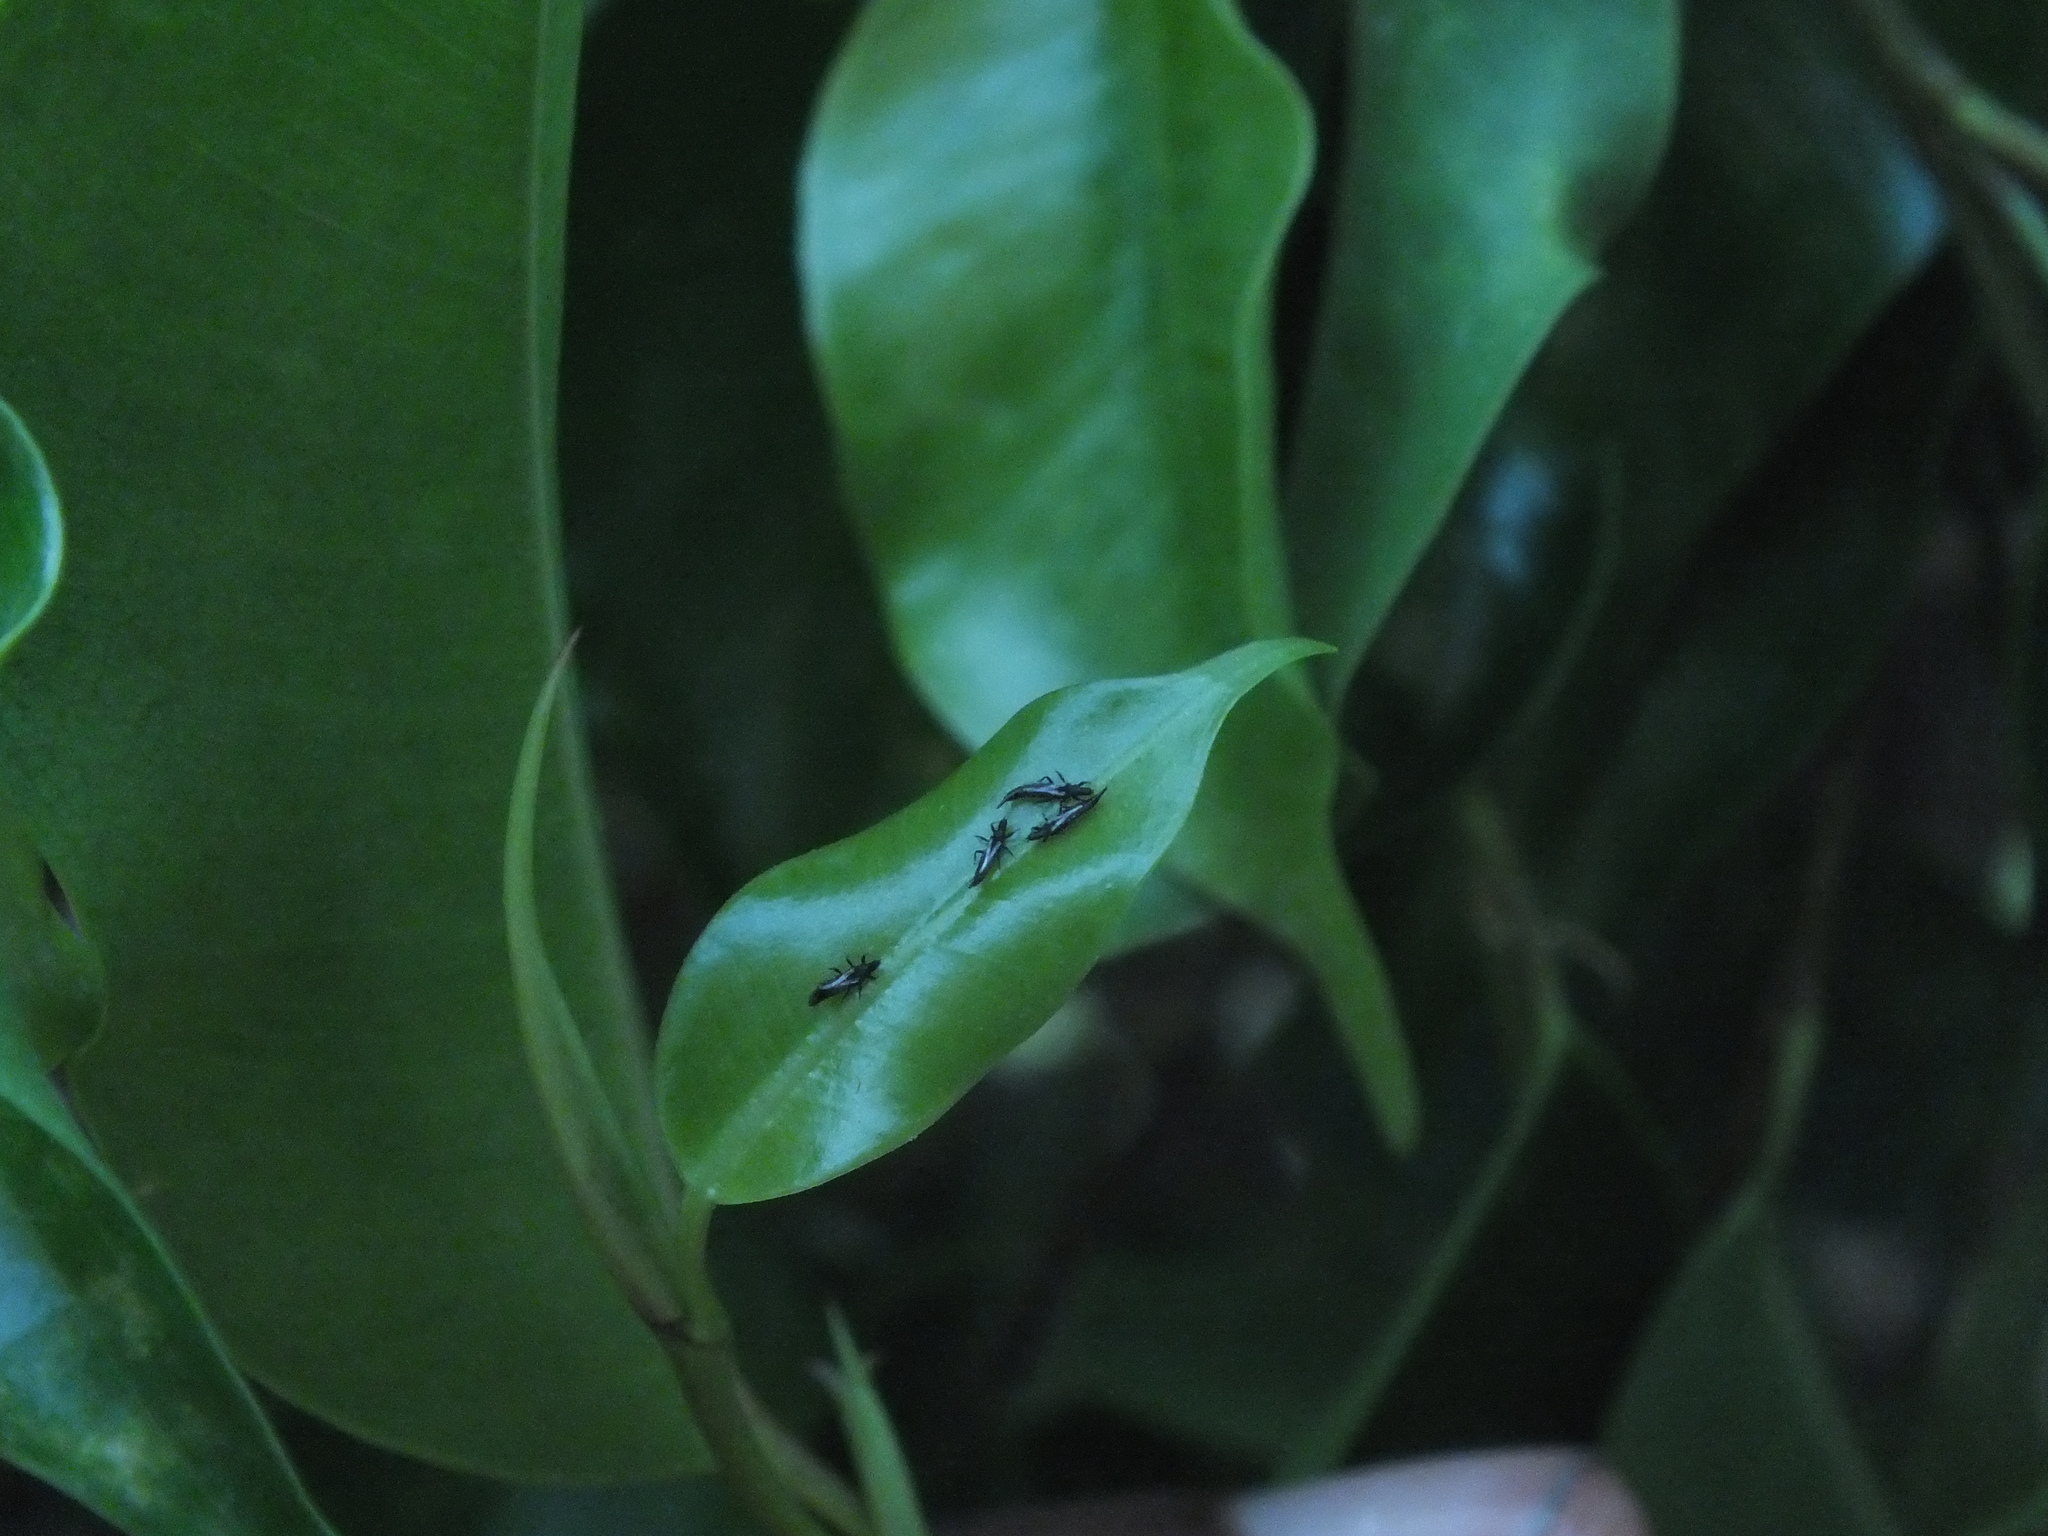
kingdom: Plantae
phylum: Tracheophyta
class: Magnoliopsida
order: Rosales
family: Moraceae
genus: Ficus
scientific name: Ficus benjamina
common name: Weeping fig
